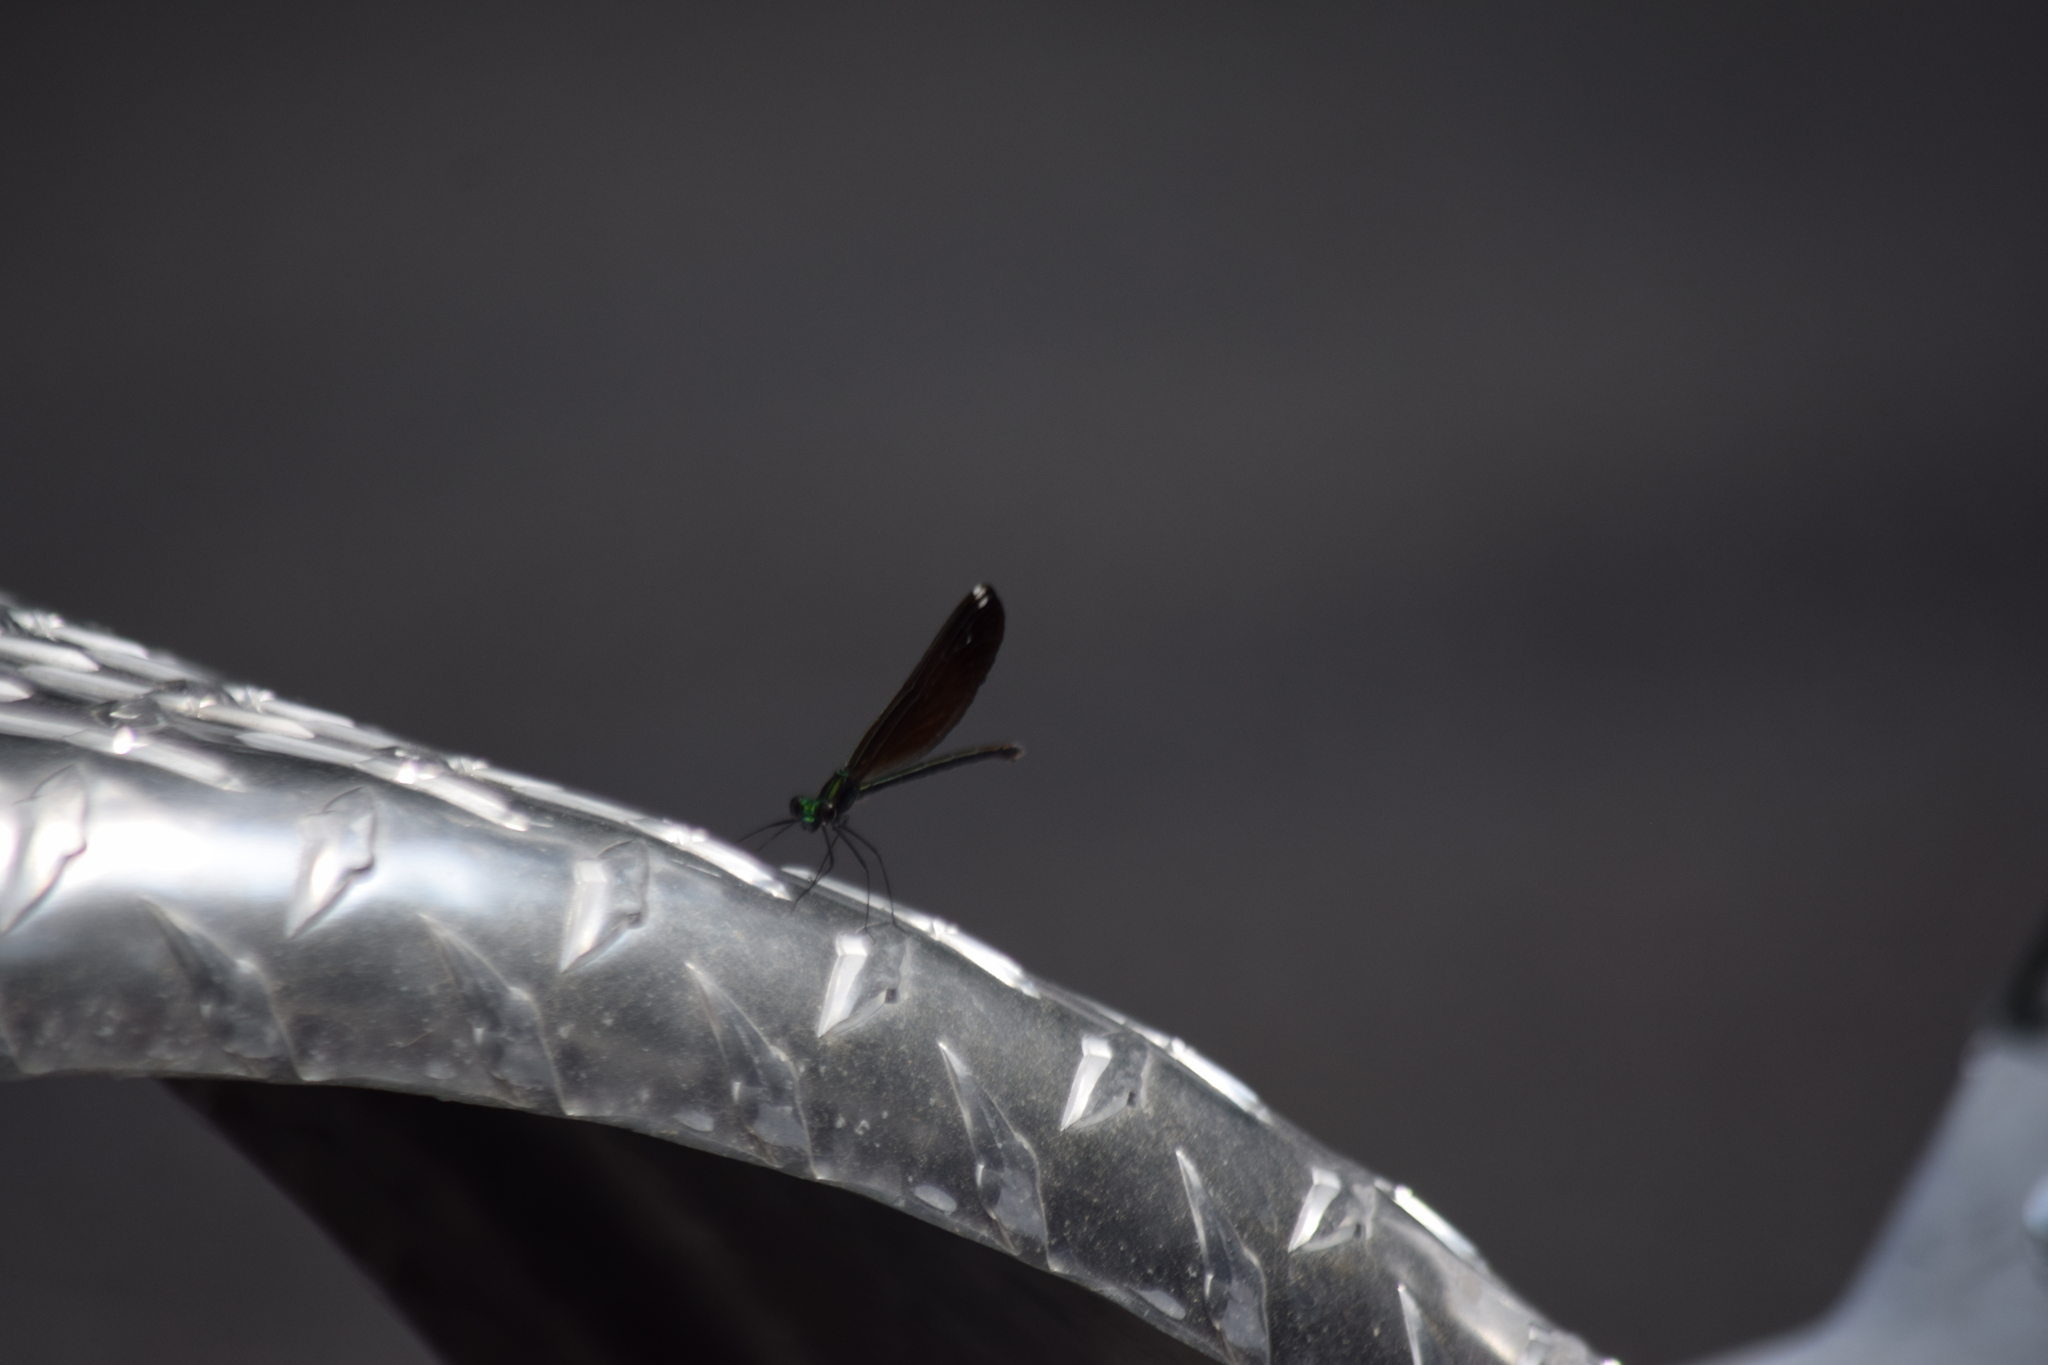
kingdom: Animalia
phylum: Arthropoda
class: Insecta
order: Odonata
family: Calopterygidae
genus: Calopteryx
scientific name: Calopteryx maculata
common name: Ebony jewelwing
